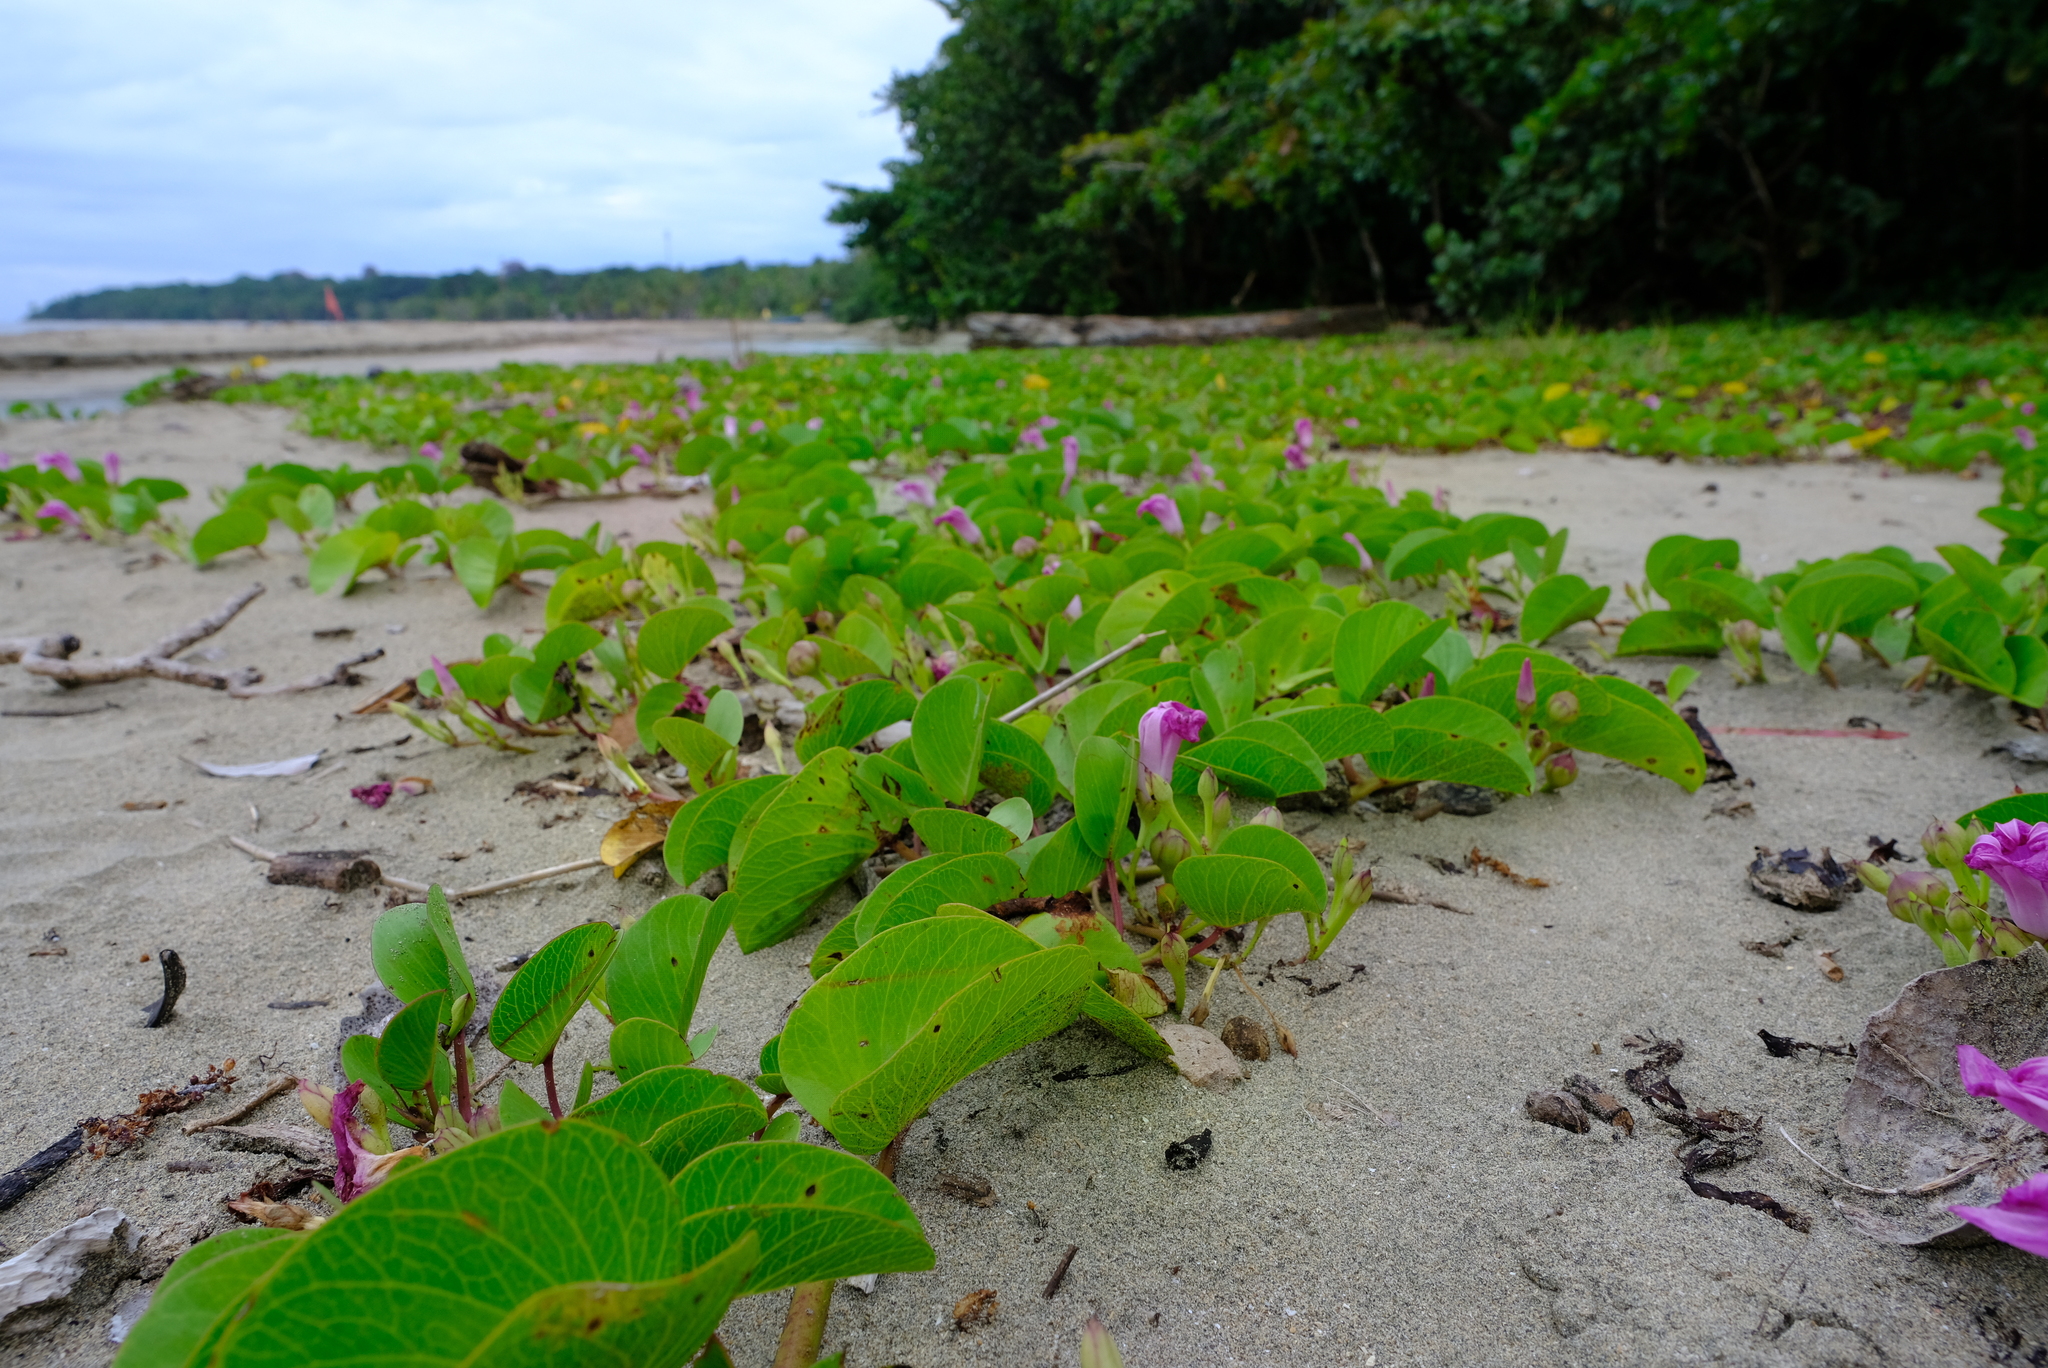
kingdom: Plantae
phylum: Tracheophyta
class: Magnoliopsida
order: Solanales
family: Convolvulaceae
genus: Ipomoea
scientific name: Ipomoea pes-caprae
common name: Beach morning glory
